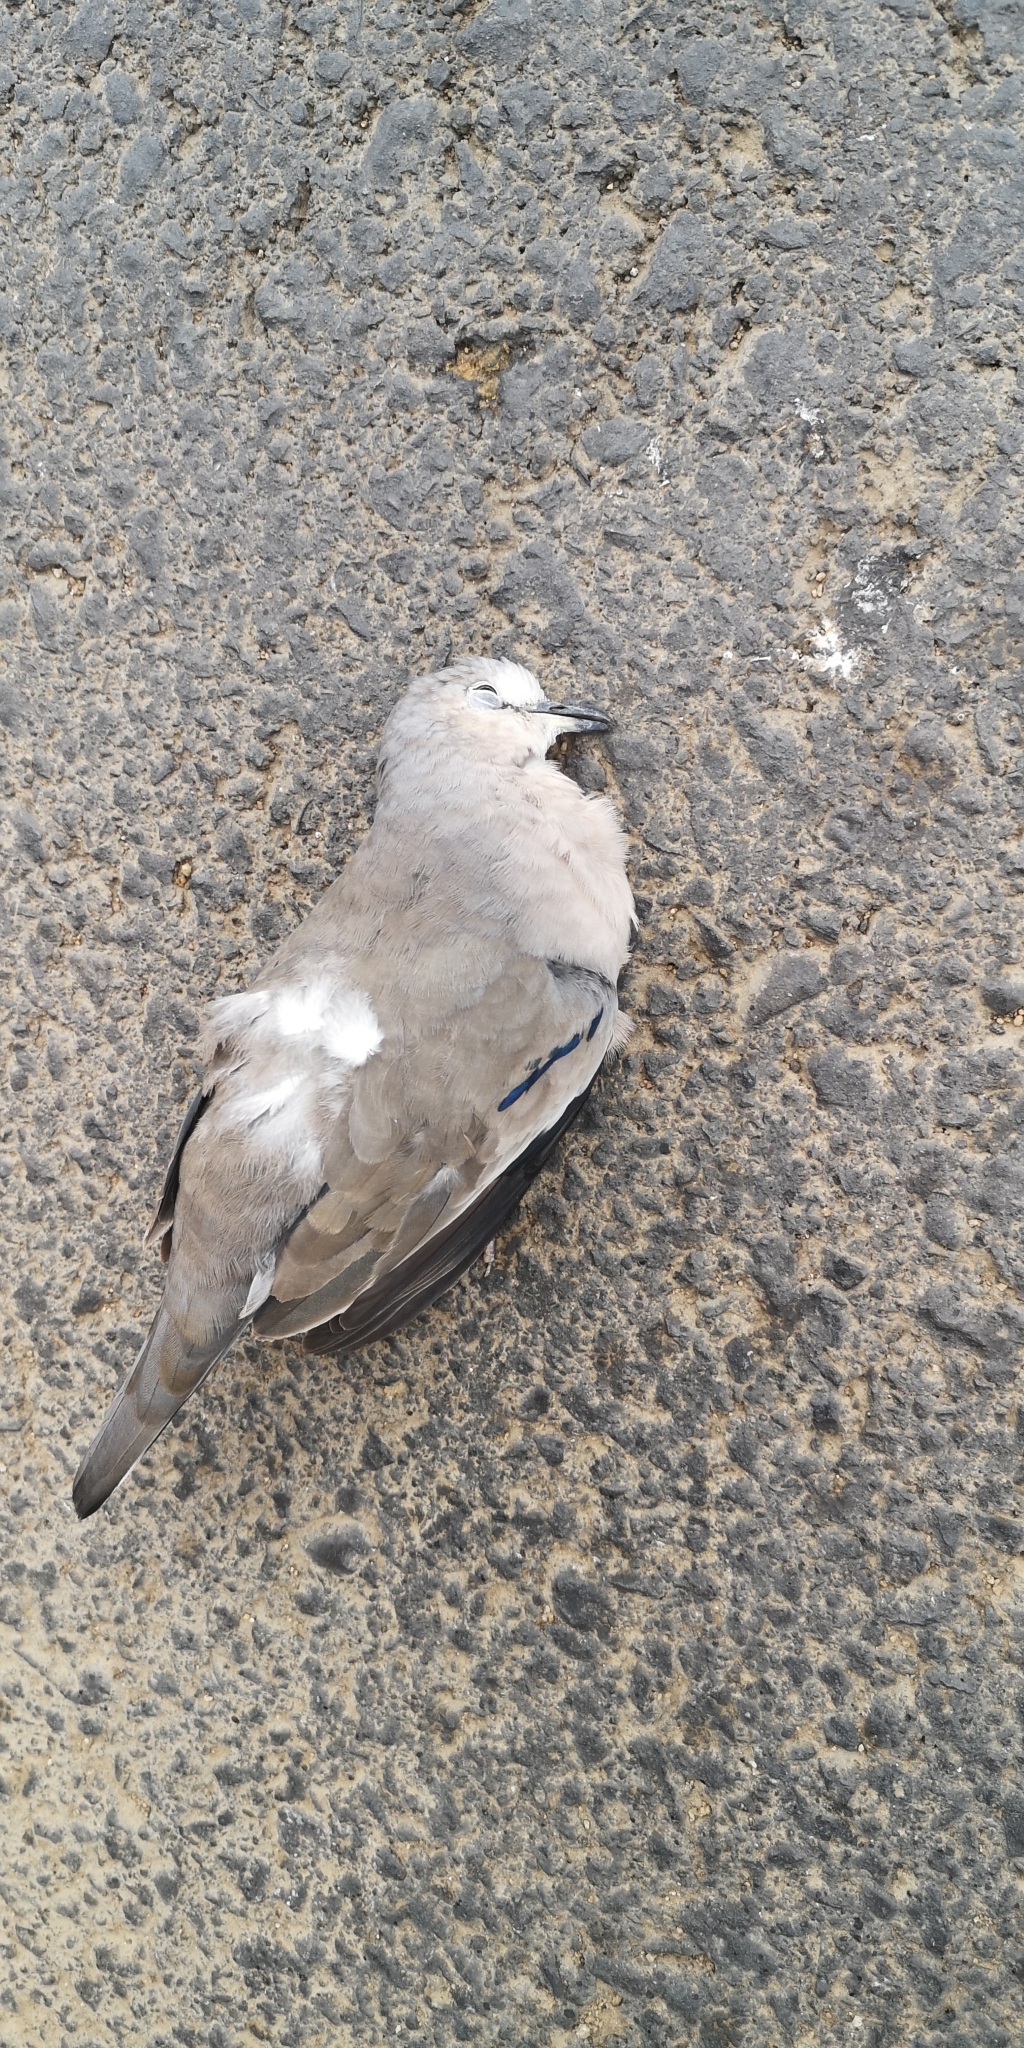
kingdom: Animalia
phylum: Chordata
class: Aves
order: Columbiformes
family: Columbidae
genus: Columbina
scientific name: Columbina picui
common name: Picui ground dove
